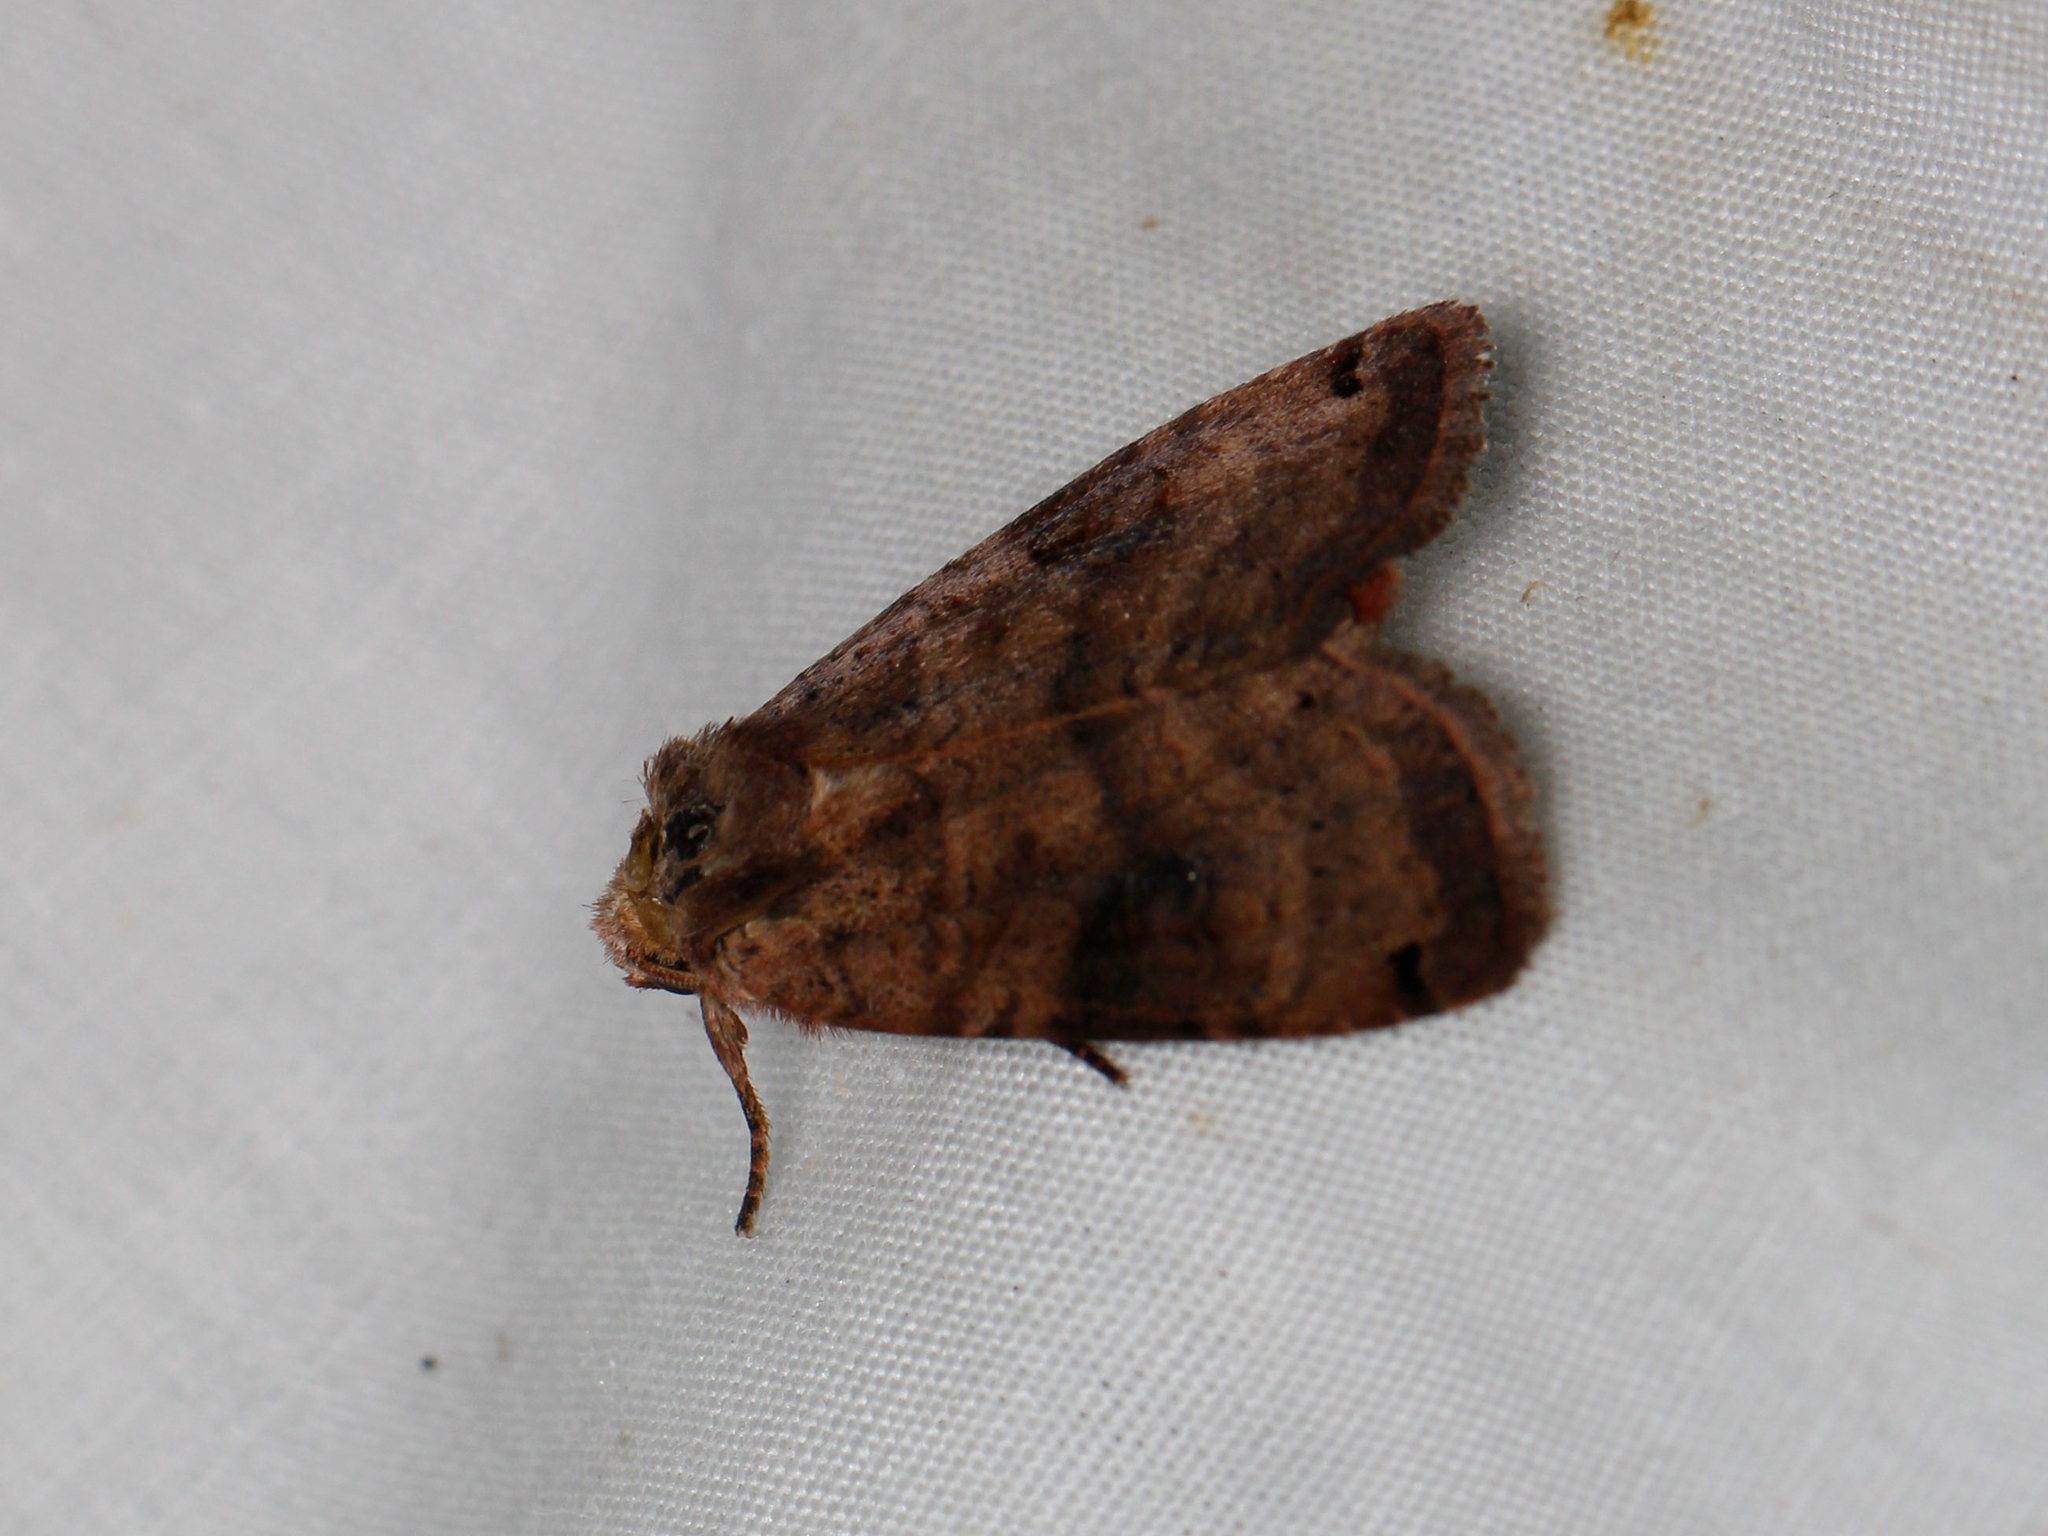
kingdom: Animalia
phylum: Arthropoda
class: Insecta
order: Lepidoptera
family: Noctuidae
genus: Xestia
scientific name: Xestia smithii
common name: Smith's dart
